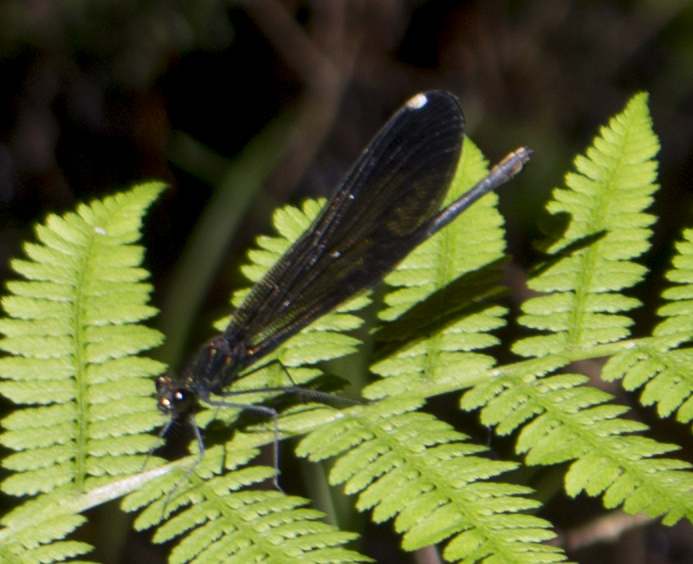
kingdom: Animalia
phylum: Arthropoda
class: Insecta
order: Odonata
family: Calopterygidae
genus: Calopteryx
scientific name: Calopteryx maculata
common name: Ebony jewelwing
